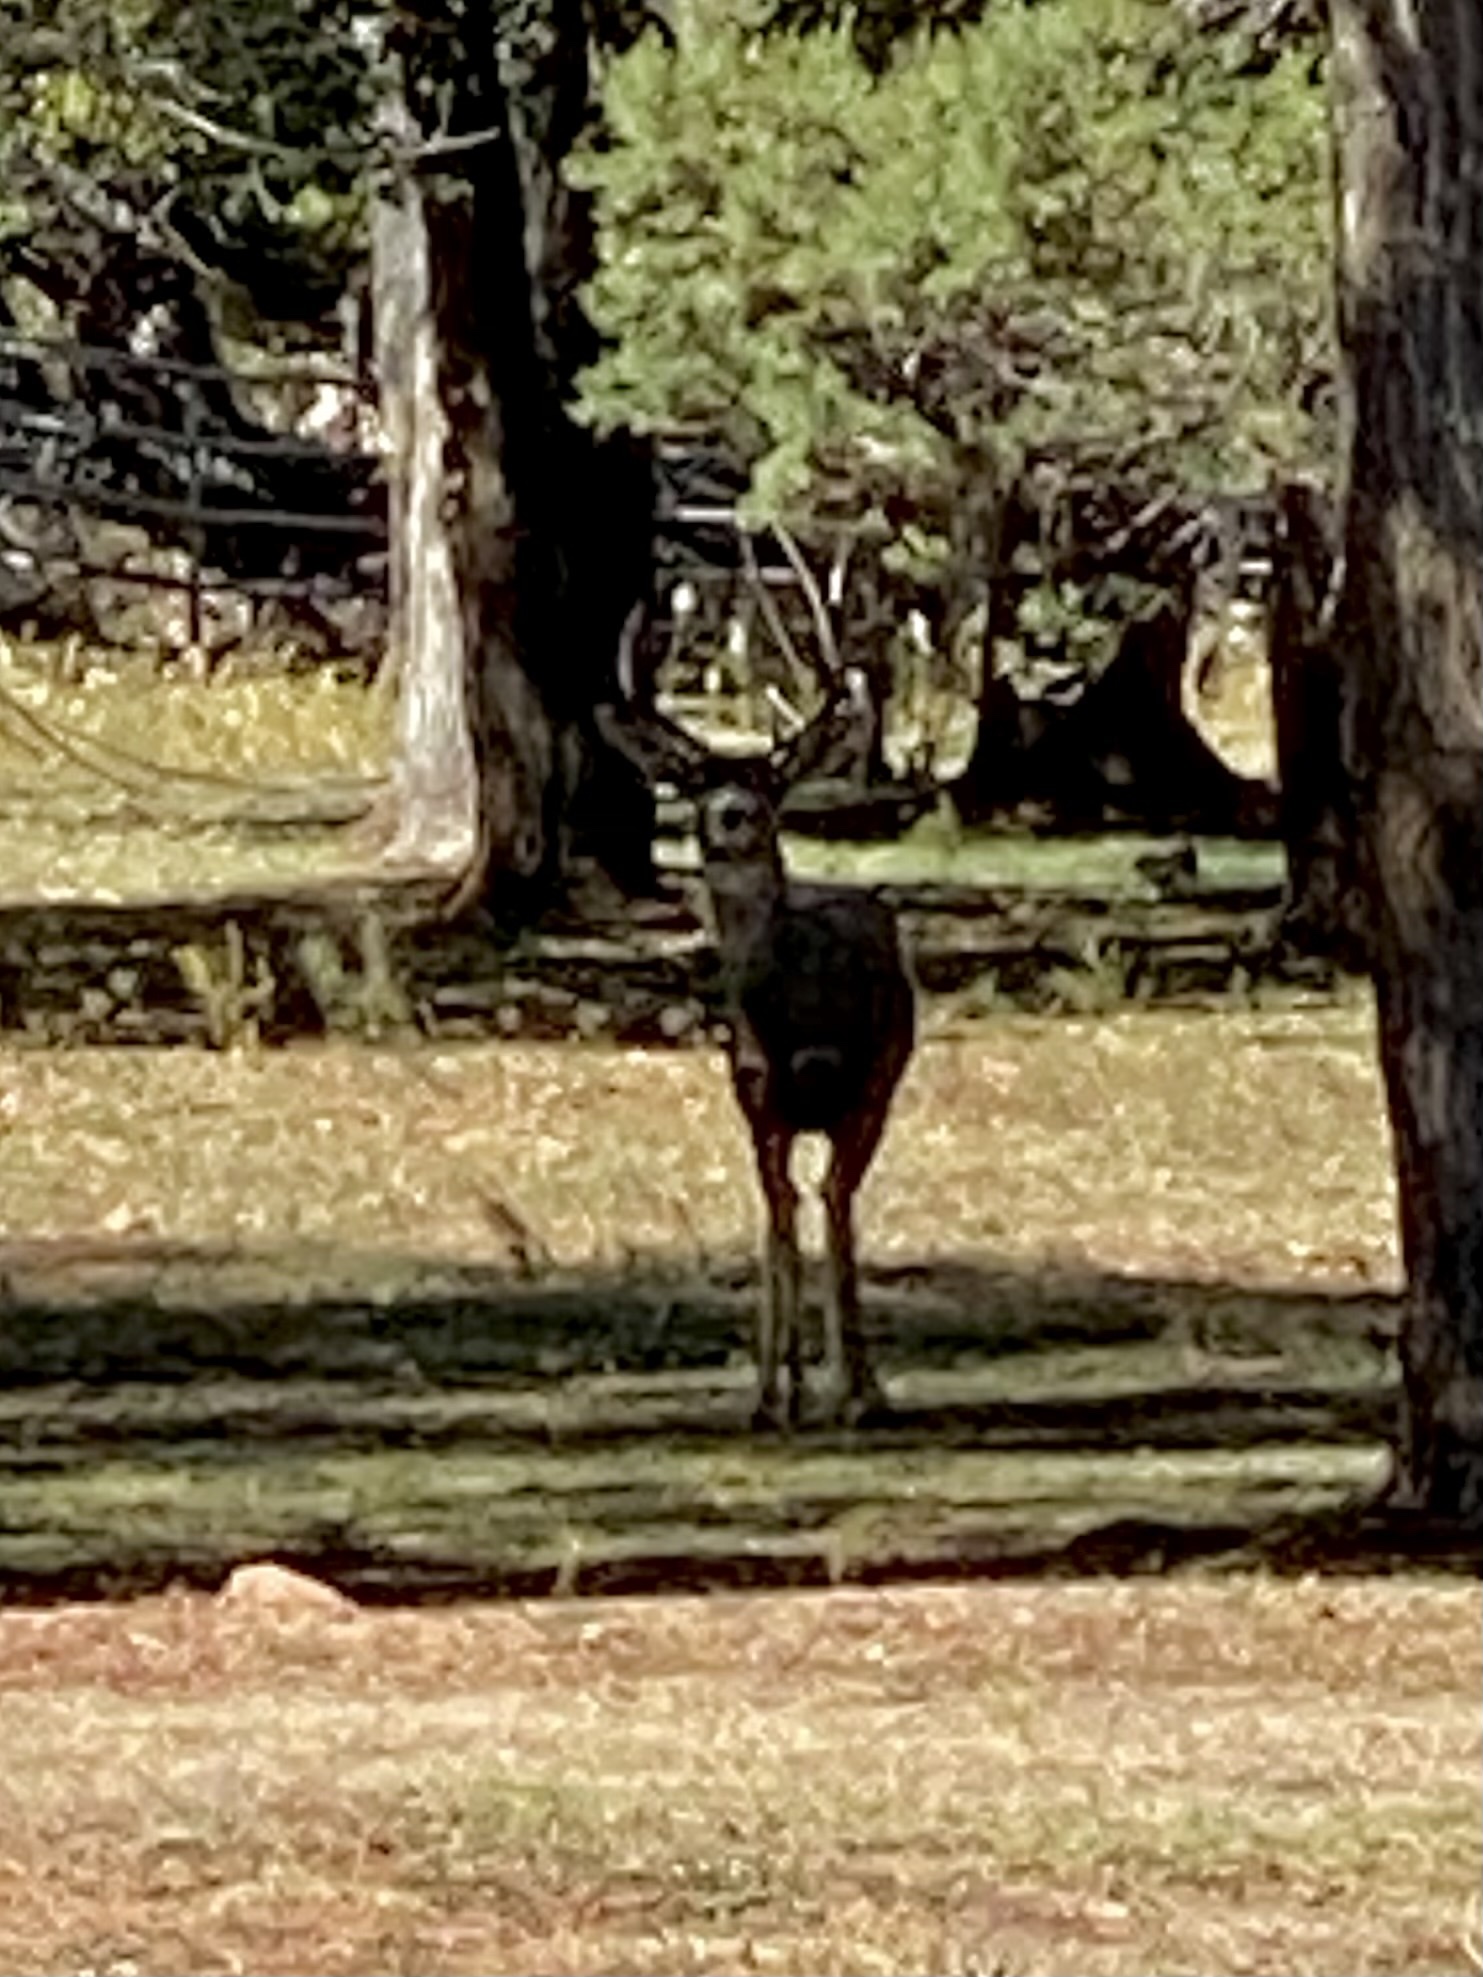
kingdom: Animalia
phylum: Chordata
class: Mammalia
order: Artiodactyla
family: Cervidae
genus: Odocoileus
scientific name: Odocoileus hemionus
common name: Mule deer
